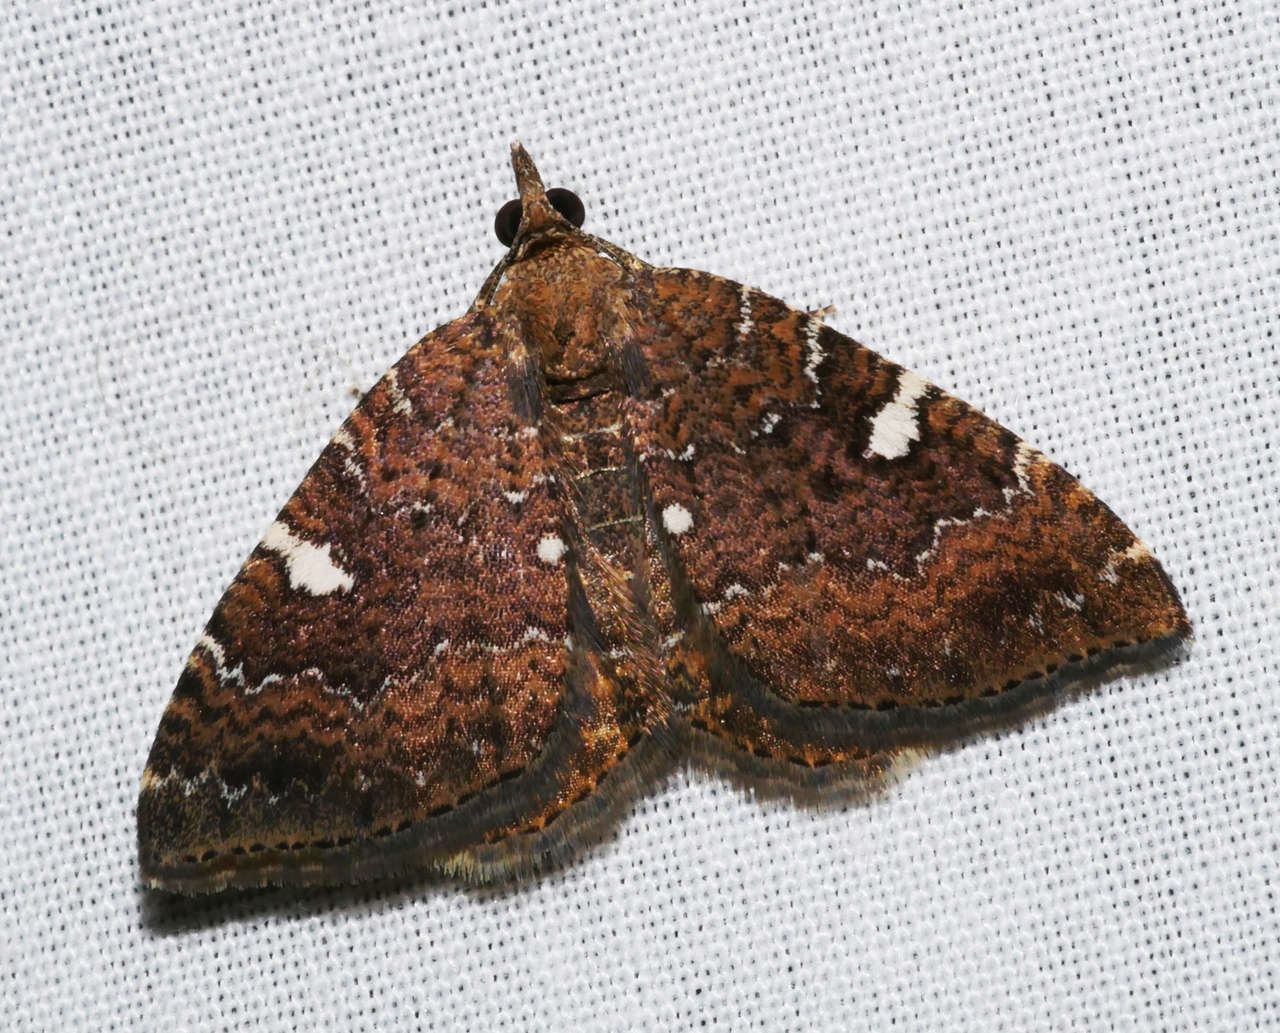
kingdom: Animalia
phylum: Arthropoda
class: Insecta
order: Lepidoptera
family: Geometridae
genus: Chrysolarentia
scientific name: Chrysolarentia
